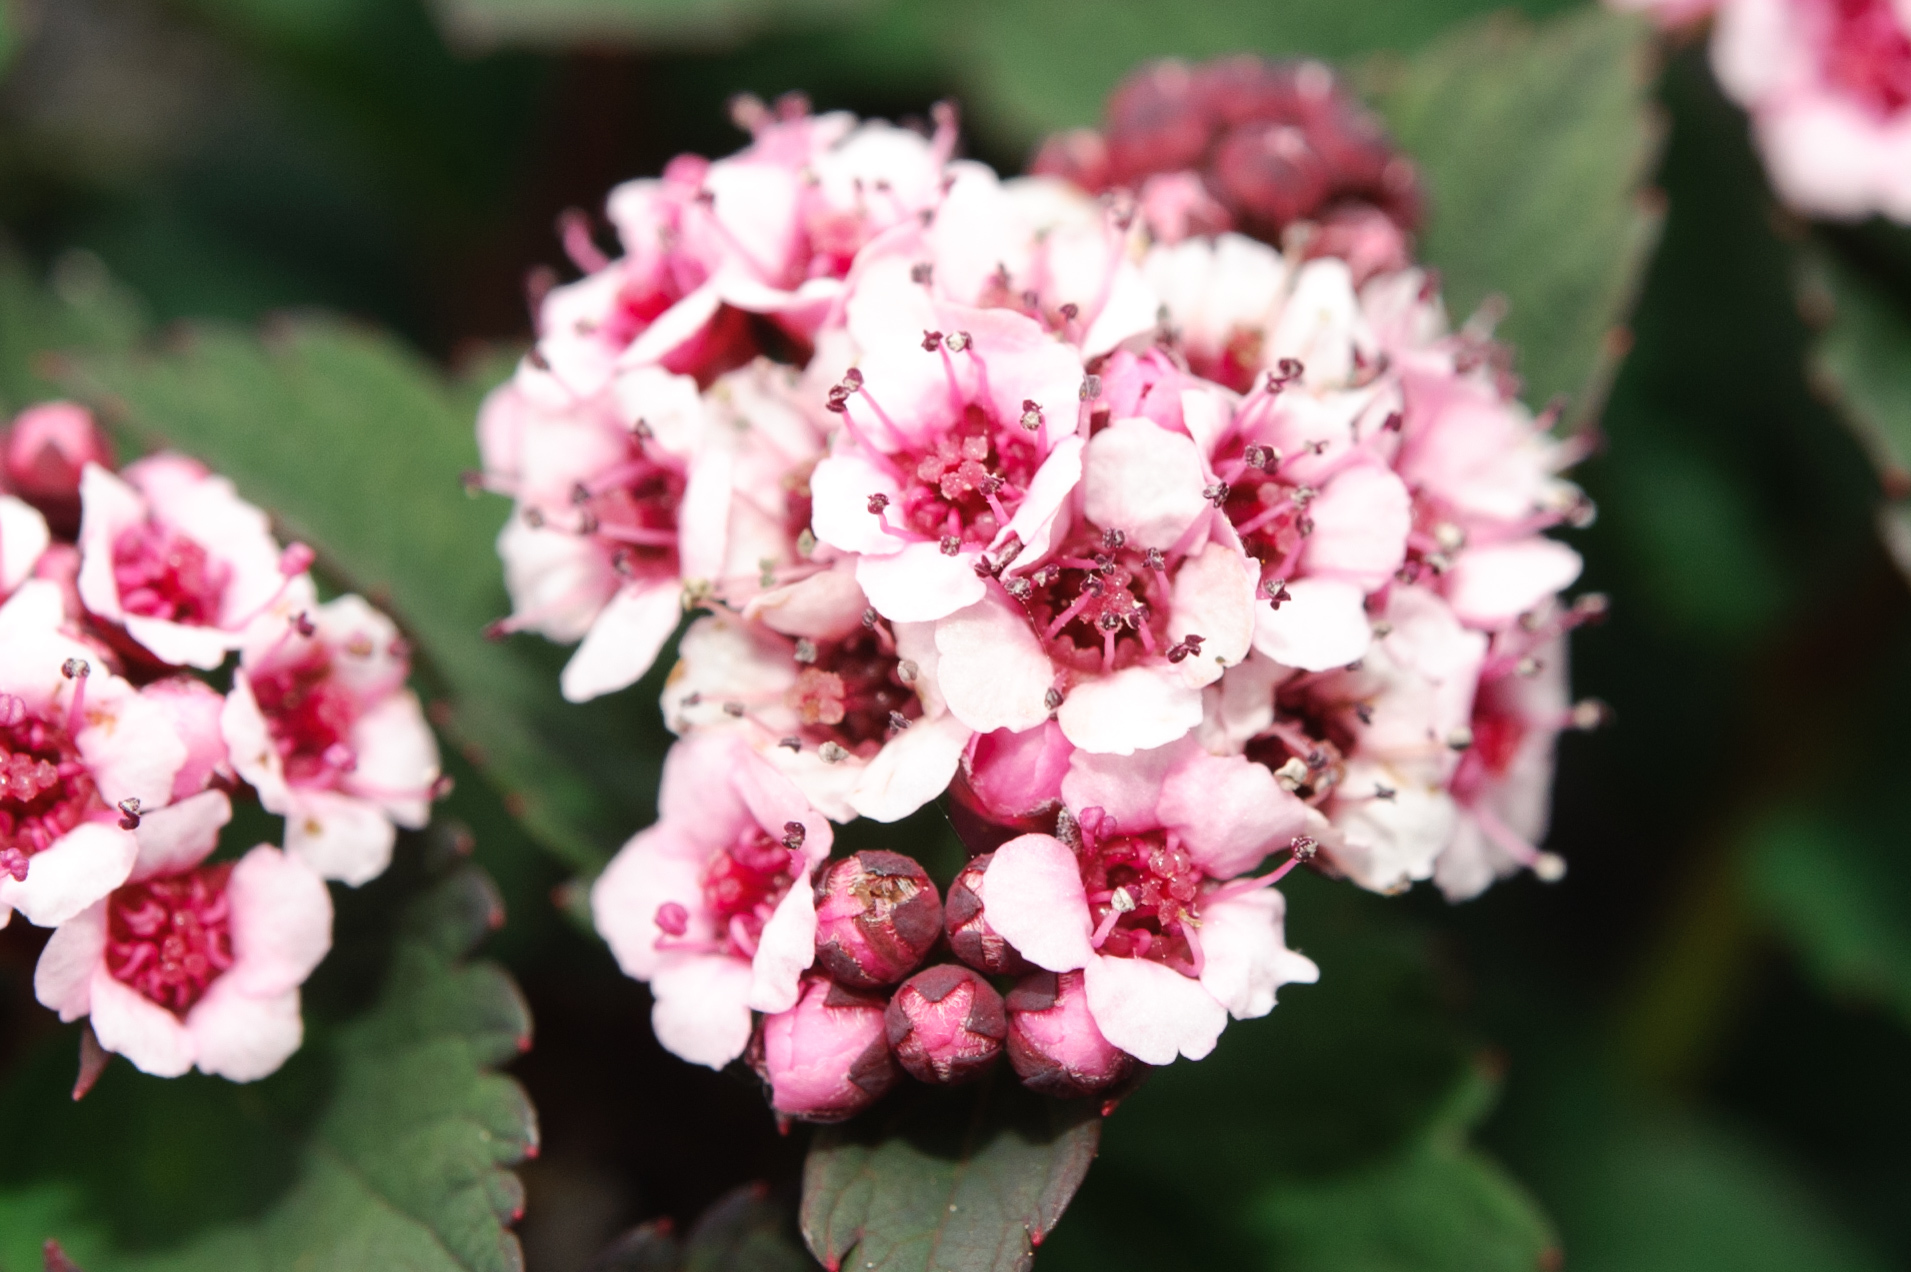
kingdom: Plantae
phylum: Tracheophyta
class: Magnoliopsida
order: Rosales
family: Rosaceae
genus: Spiraea
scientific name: Spiraea morrisonicola
